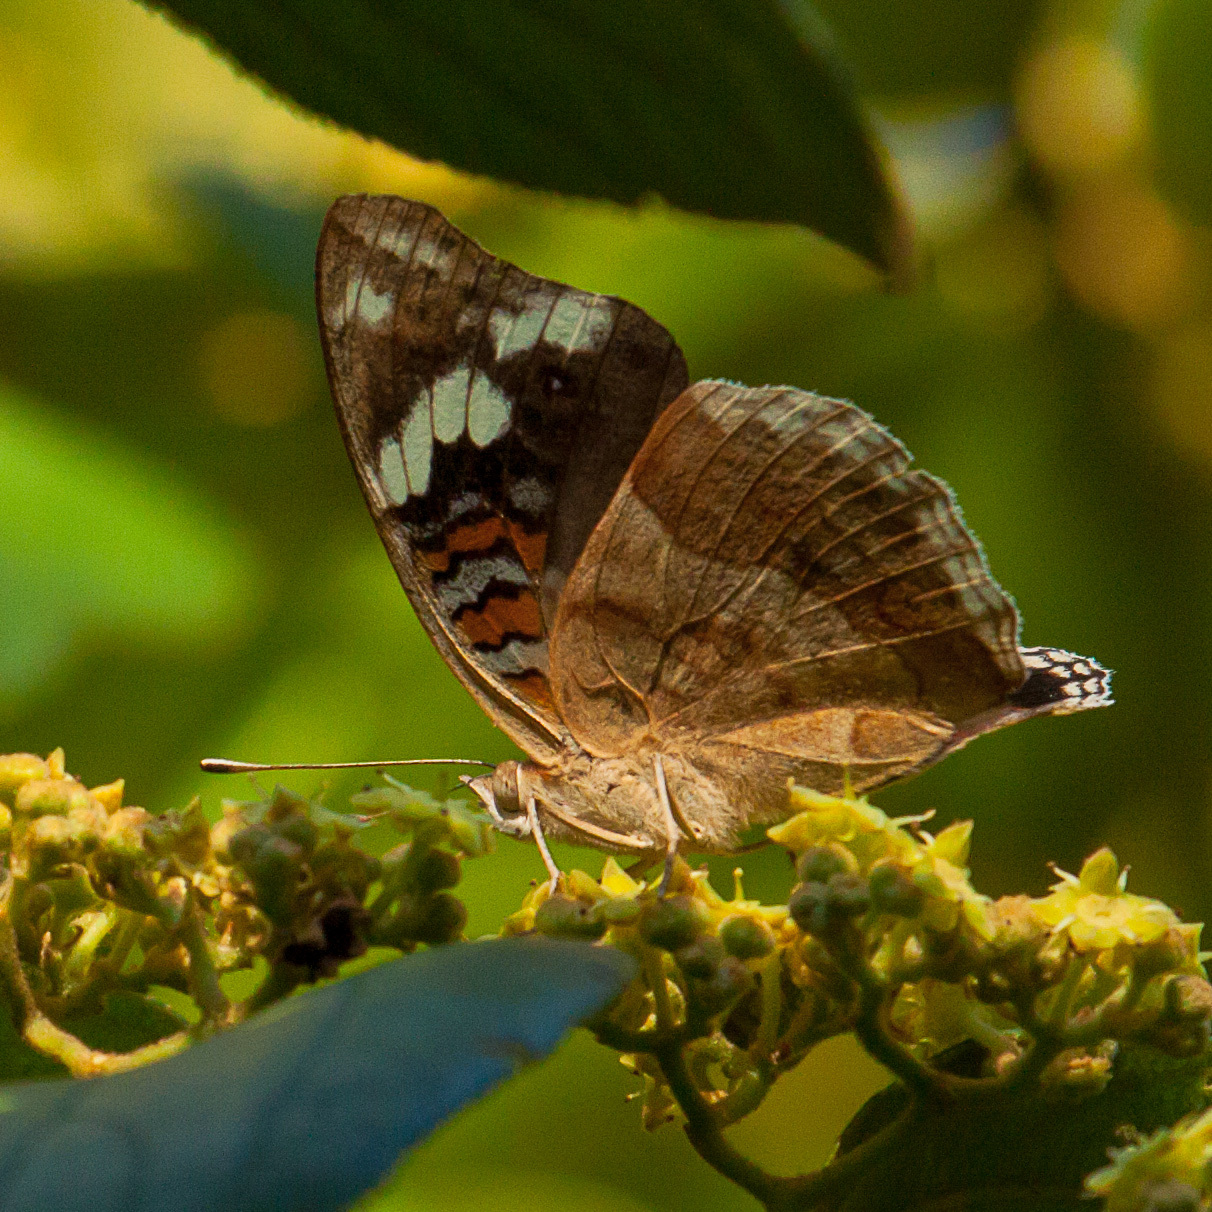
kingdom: Animalia
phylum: Arthropoda
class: Insecta
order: Lepidoptera
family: Nymphalidae
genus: Junonia
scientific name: Junonia oenone
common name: Dark blue pansy
